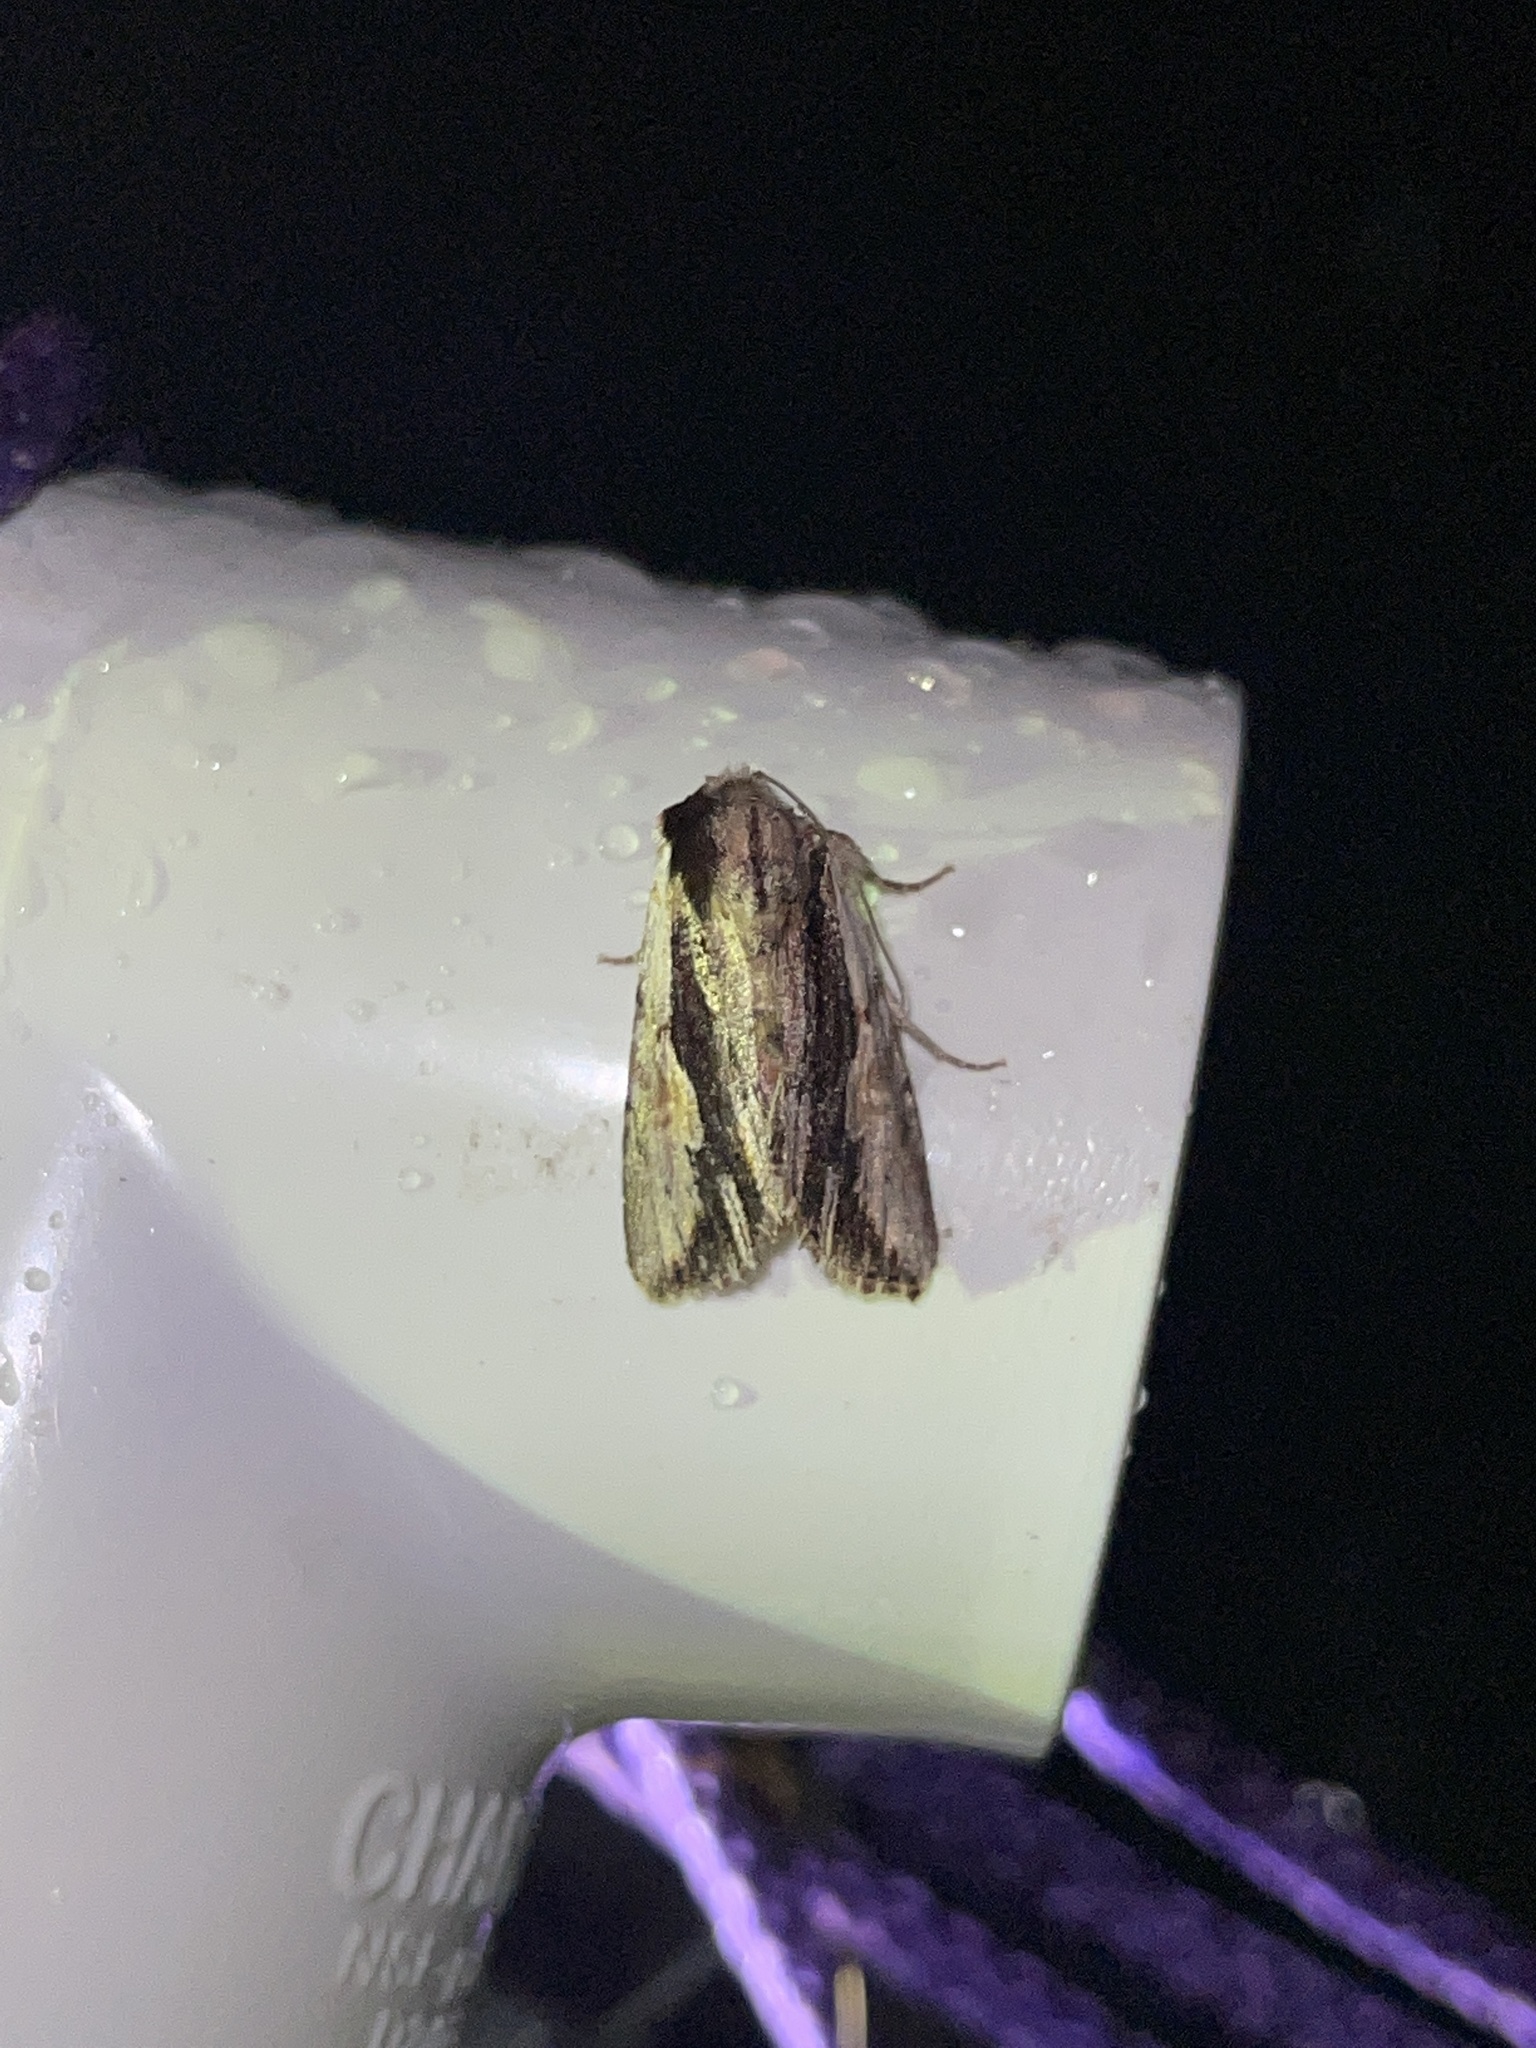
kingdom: Animalia
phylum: Arthropoda
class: Insecta
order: Lepidoptera
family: Noctuidae
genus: Achatia
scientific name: Achatia evicta
